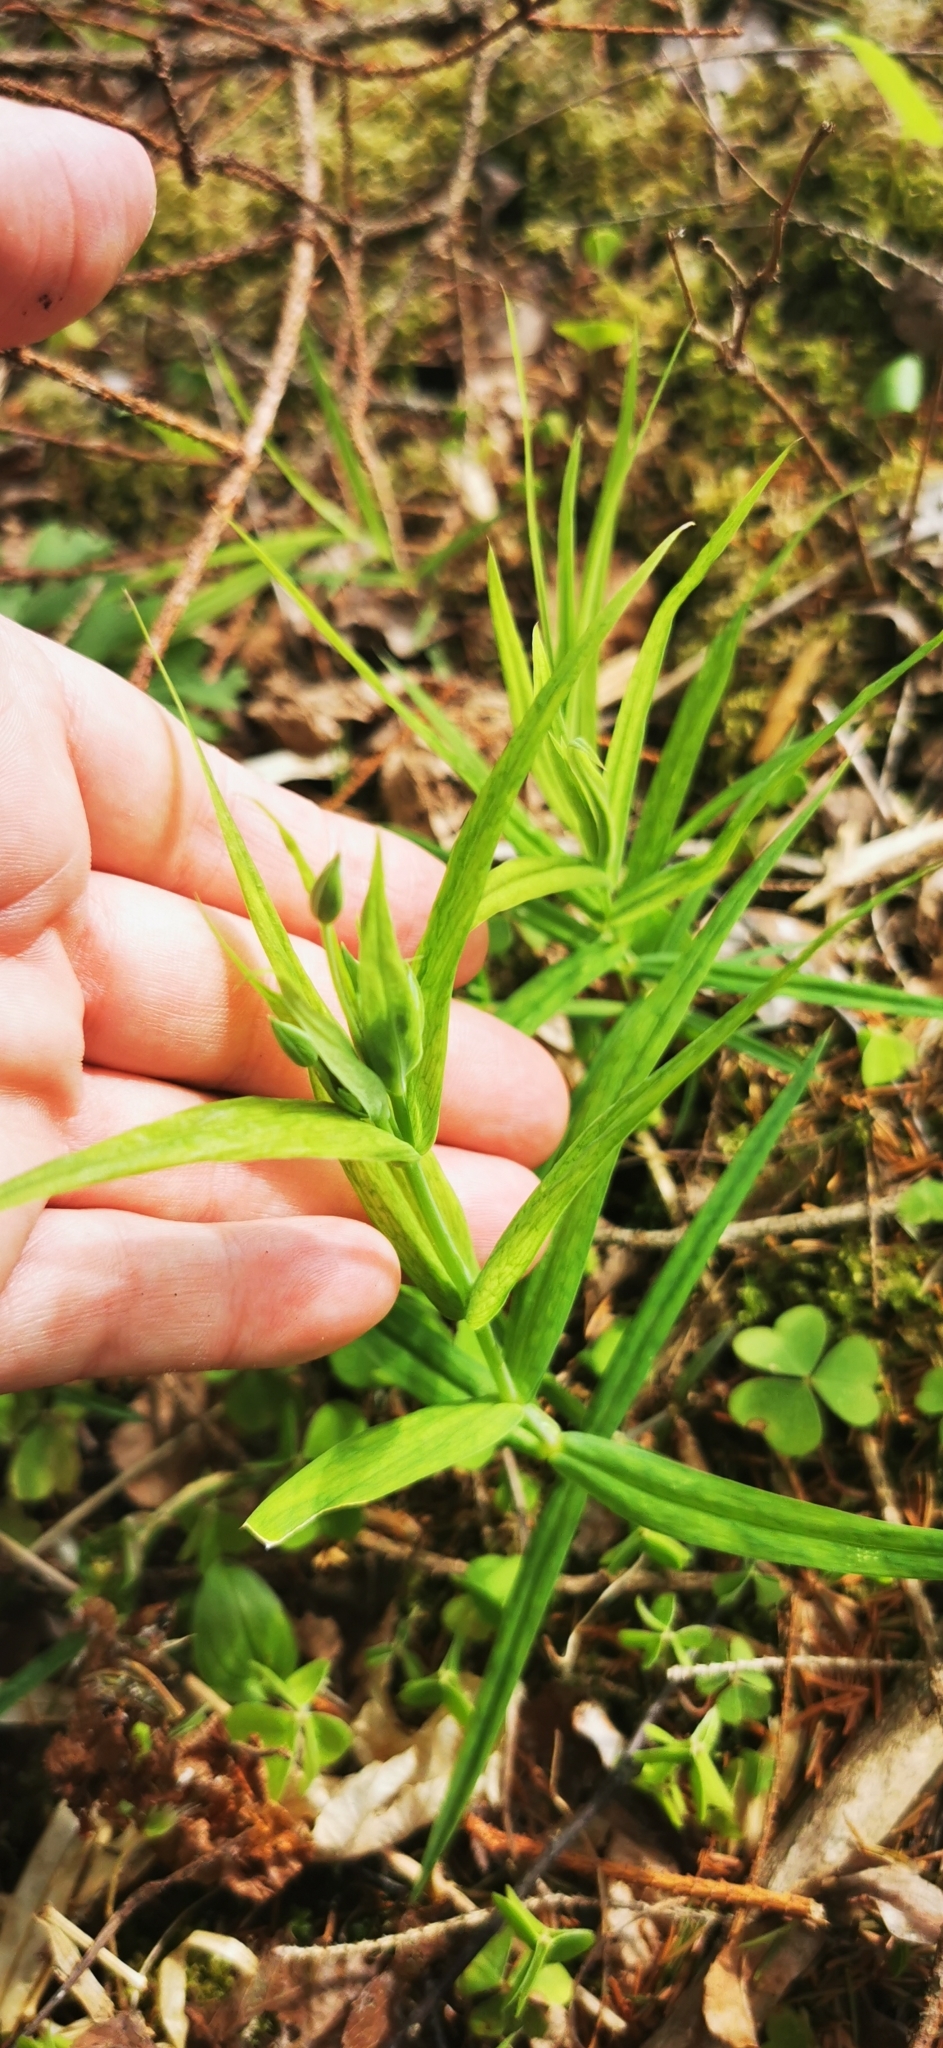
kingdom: Plantae
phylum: Tracheophyta
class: Magnoliopsida
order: Caryophyllales
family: Caryophyllaceae
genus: Rabelera
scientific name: Rabelera holostea
